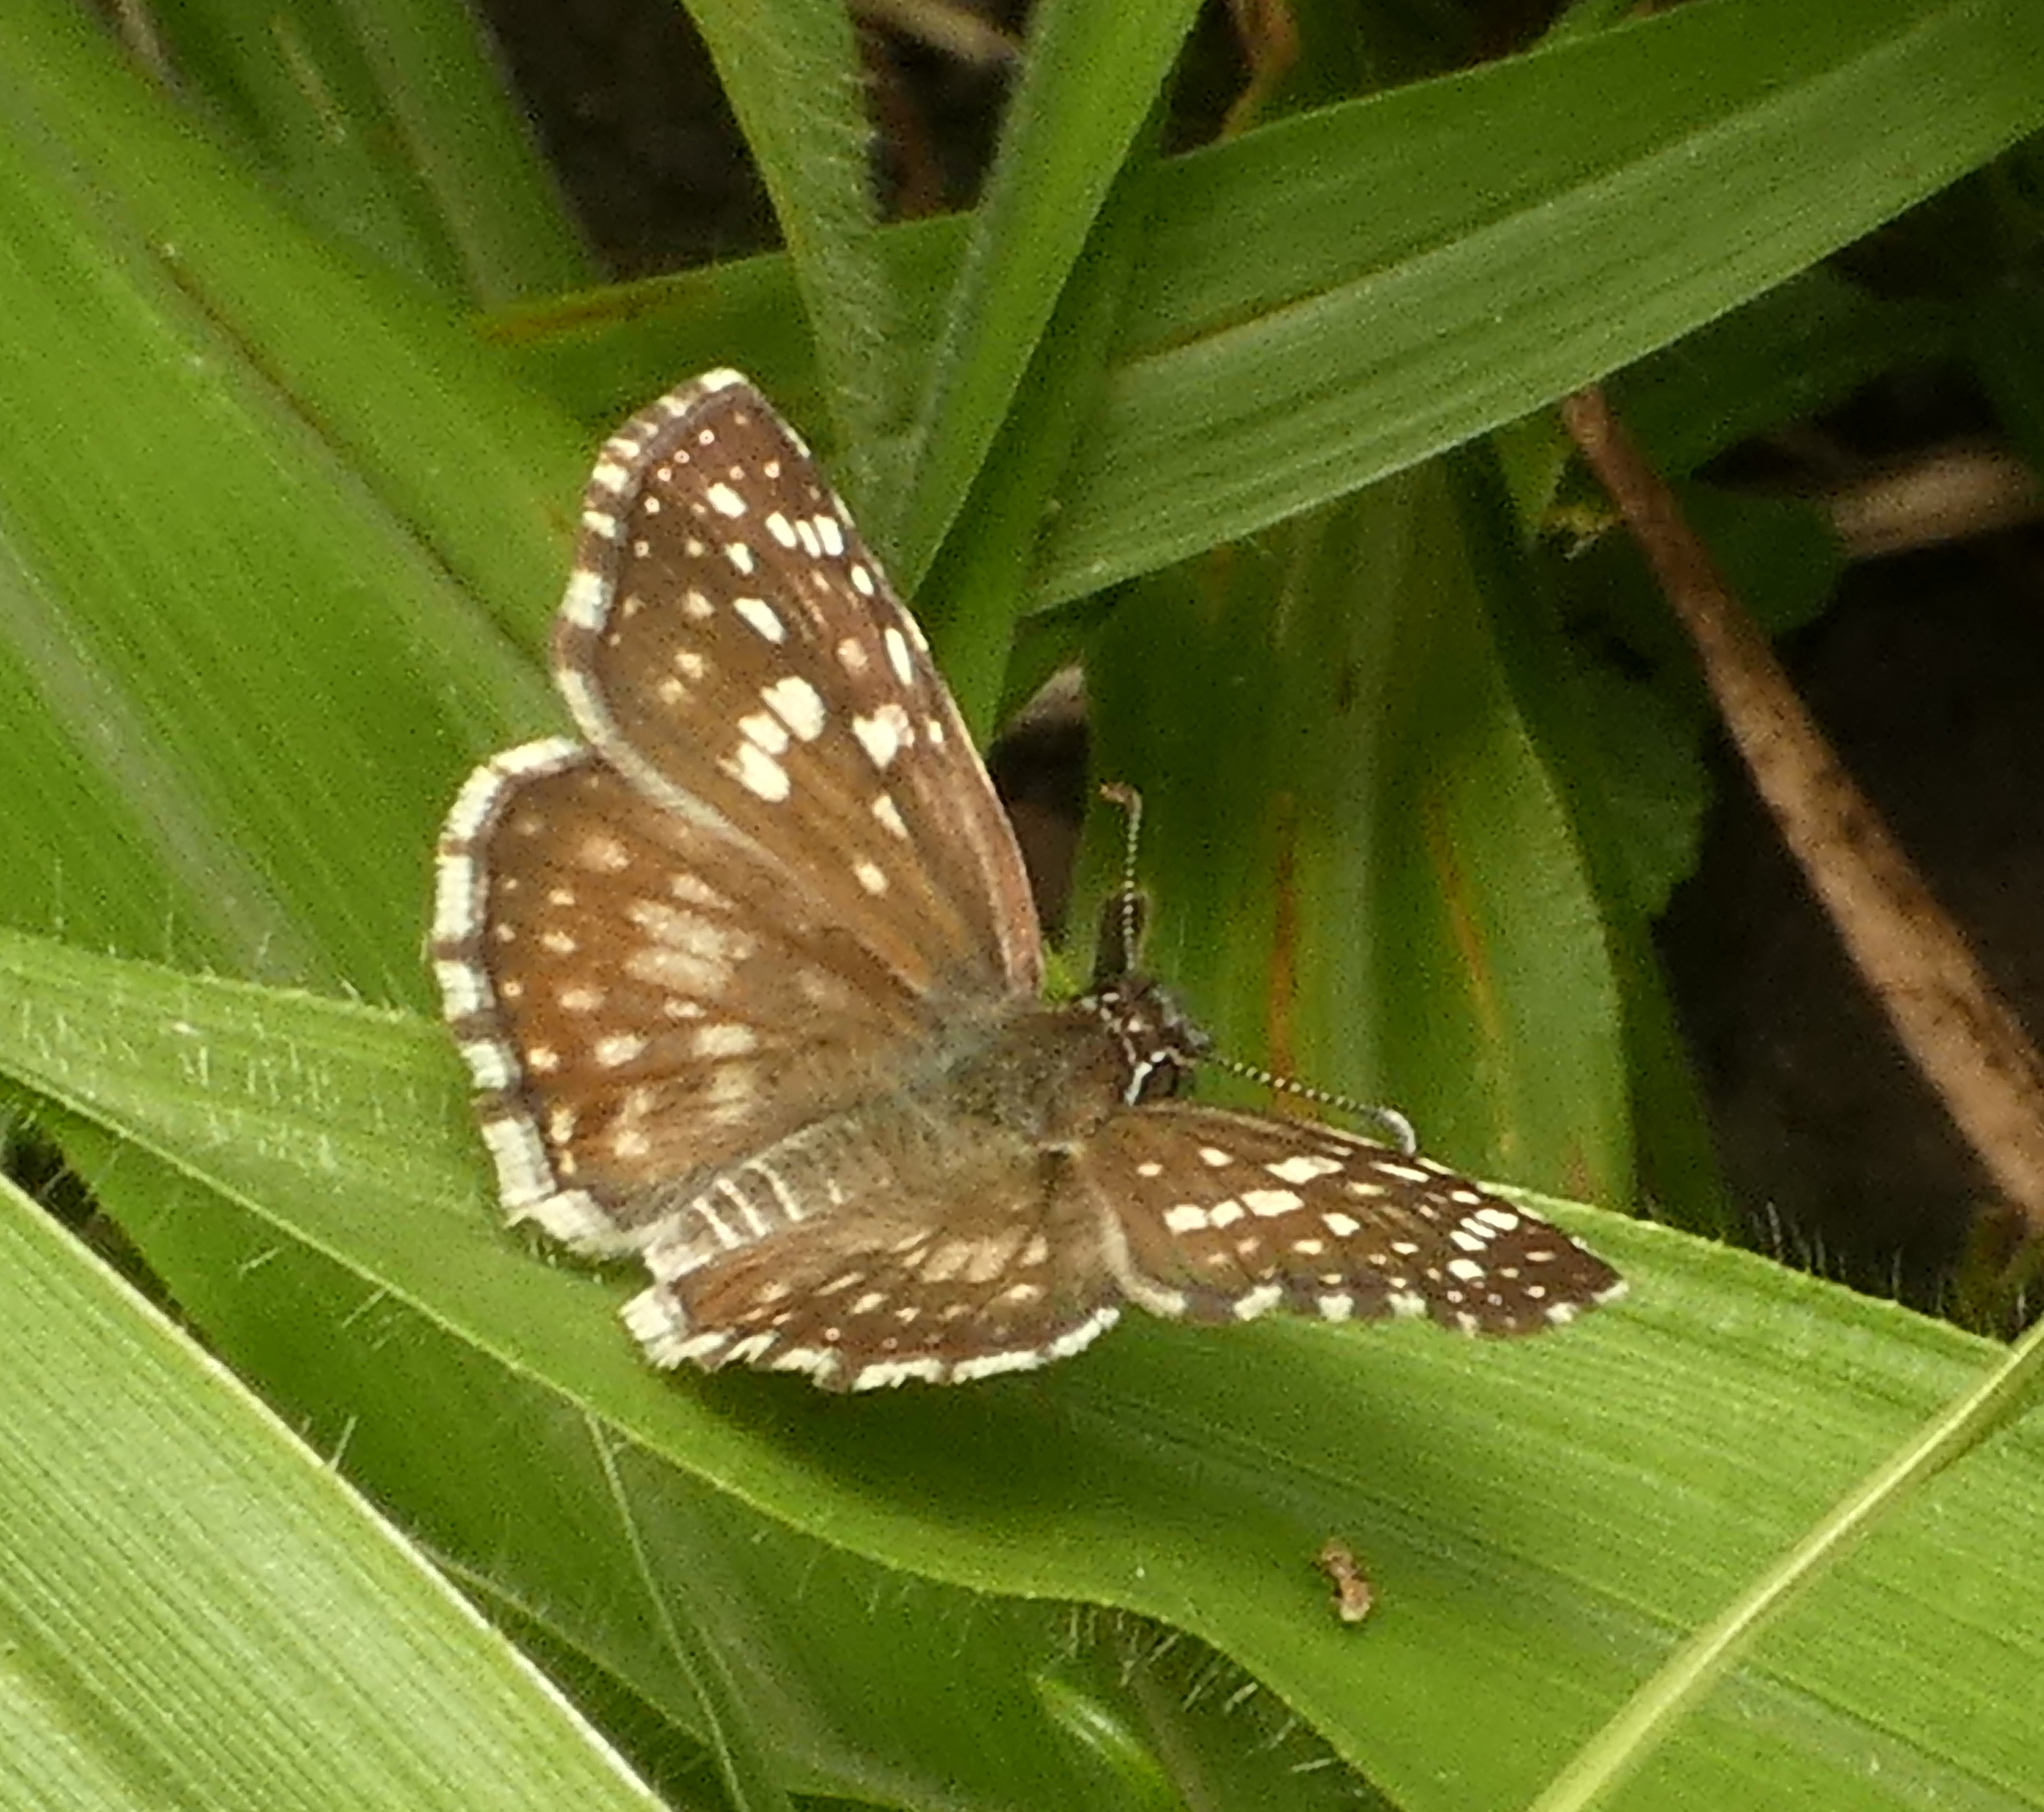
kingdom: Animalia
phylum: Arthropoda
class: Insecta
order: Lepidoptera
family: Hesperiidae
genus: Pyrgus
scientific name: Pyrgus oileus
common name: Tropical checkered-skipper
